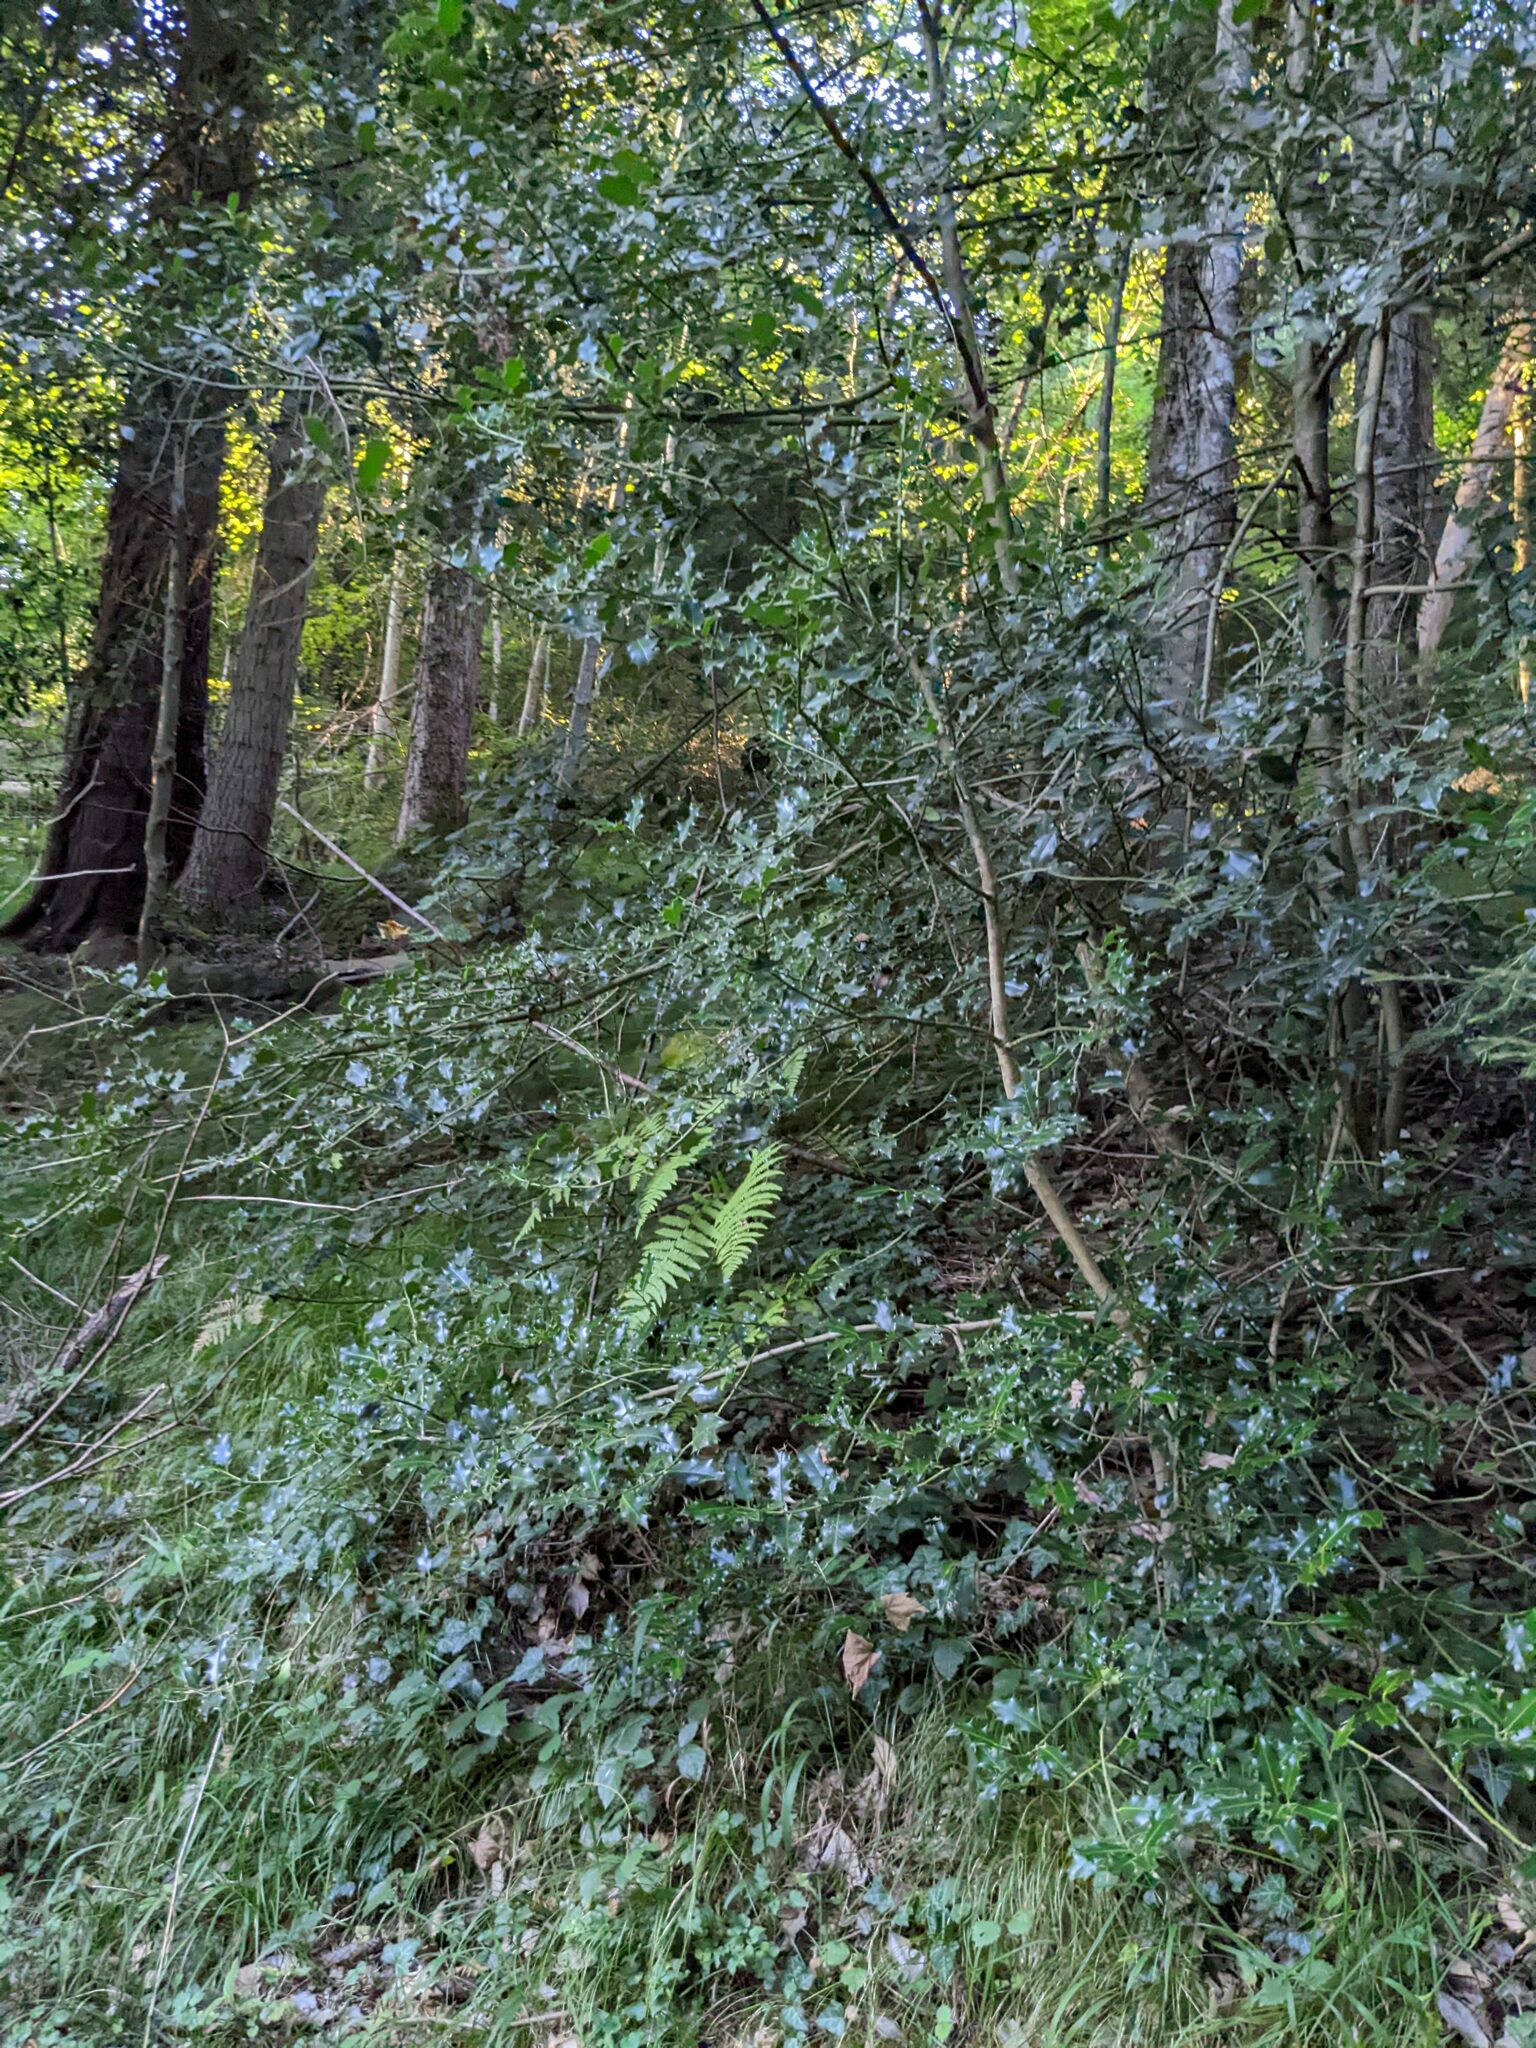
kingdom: Plantae
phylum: Tracheophyta
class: Magnoliopsida
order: Aquifoliales
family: Aquifoliaceae
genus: Ilex
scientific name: Ilex aquifolium
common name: English holly
